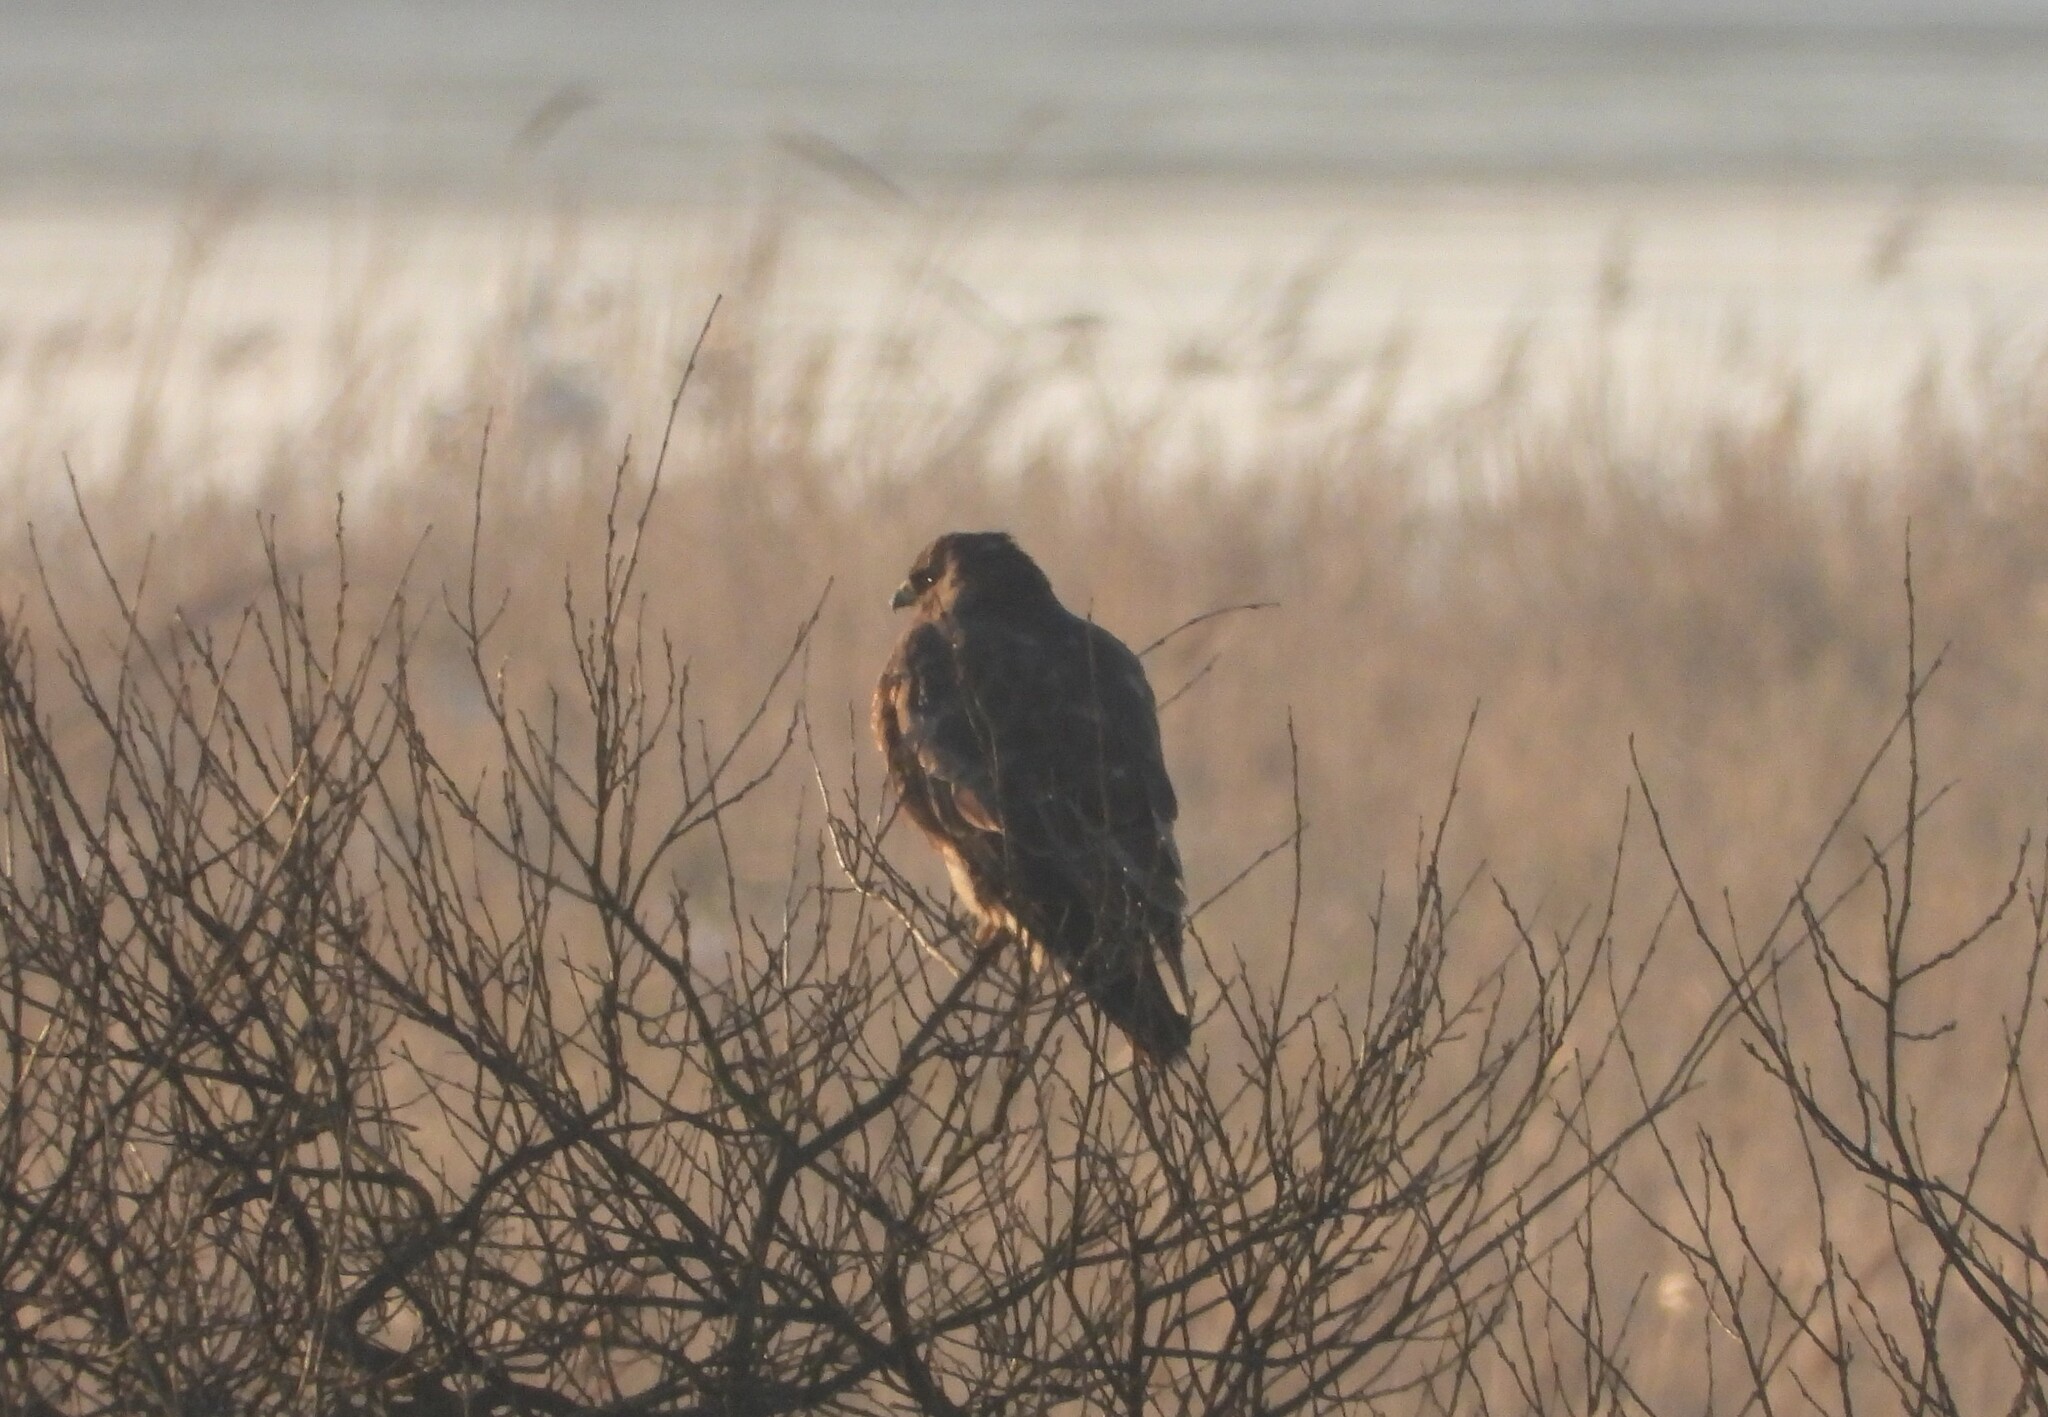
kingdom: Animalia
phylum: Chordata
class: Aves
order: Accipitriformes
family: Accipitridae
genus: Buteo
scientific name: Buteo buteo
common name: Common buzzard
